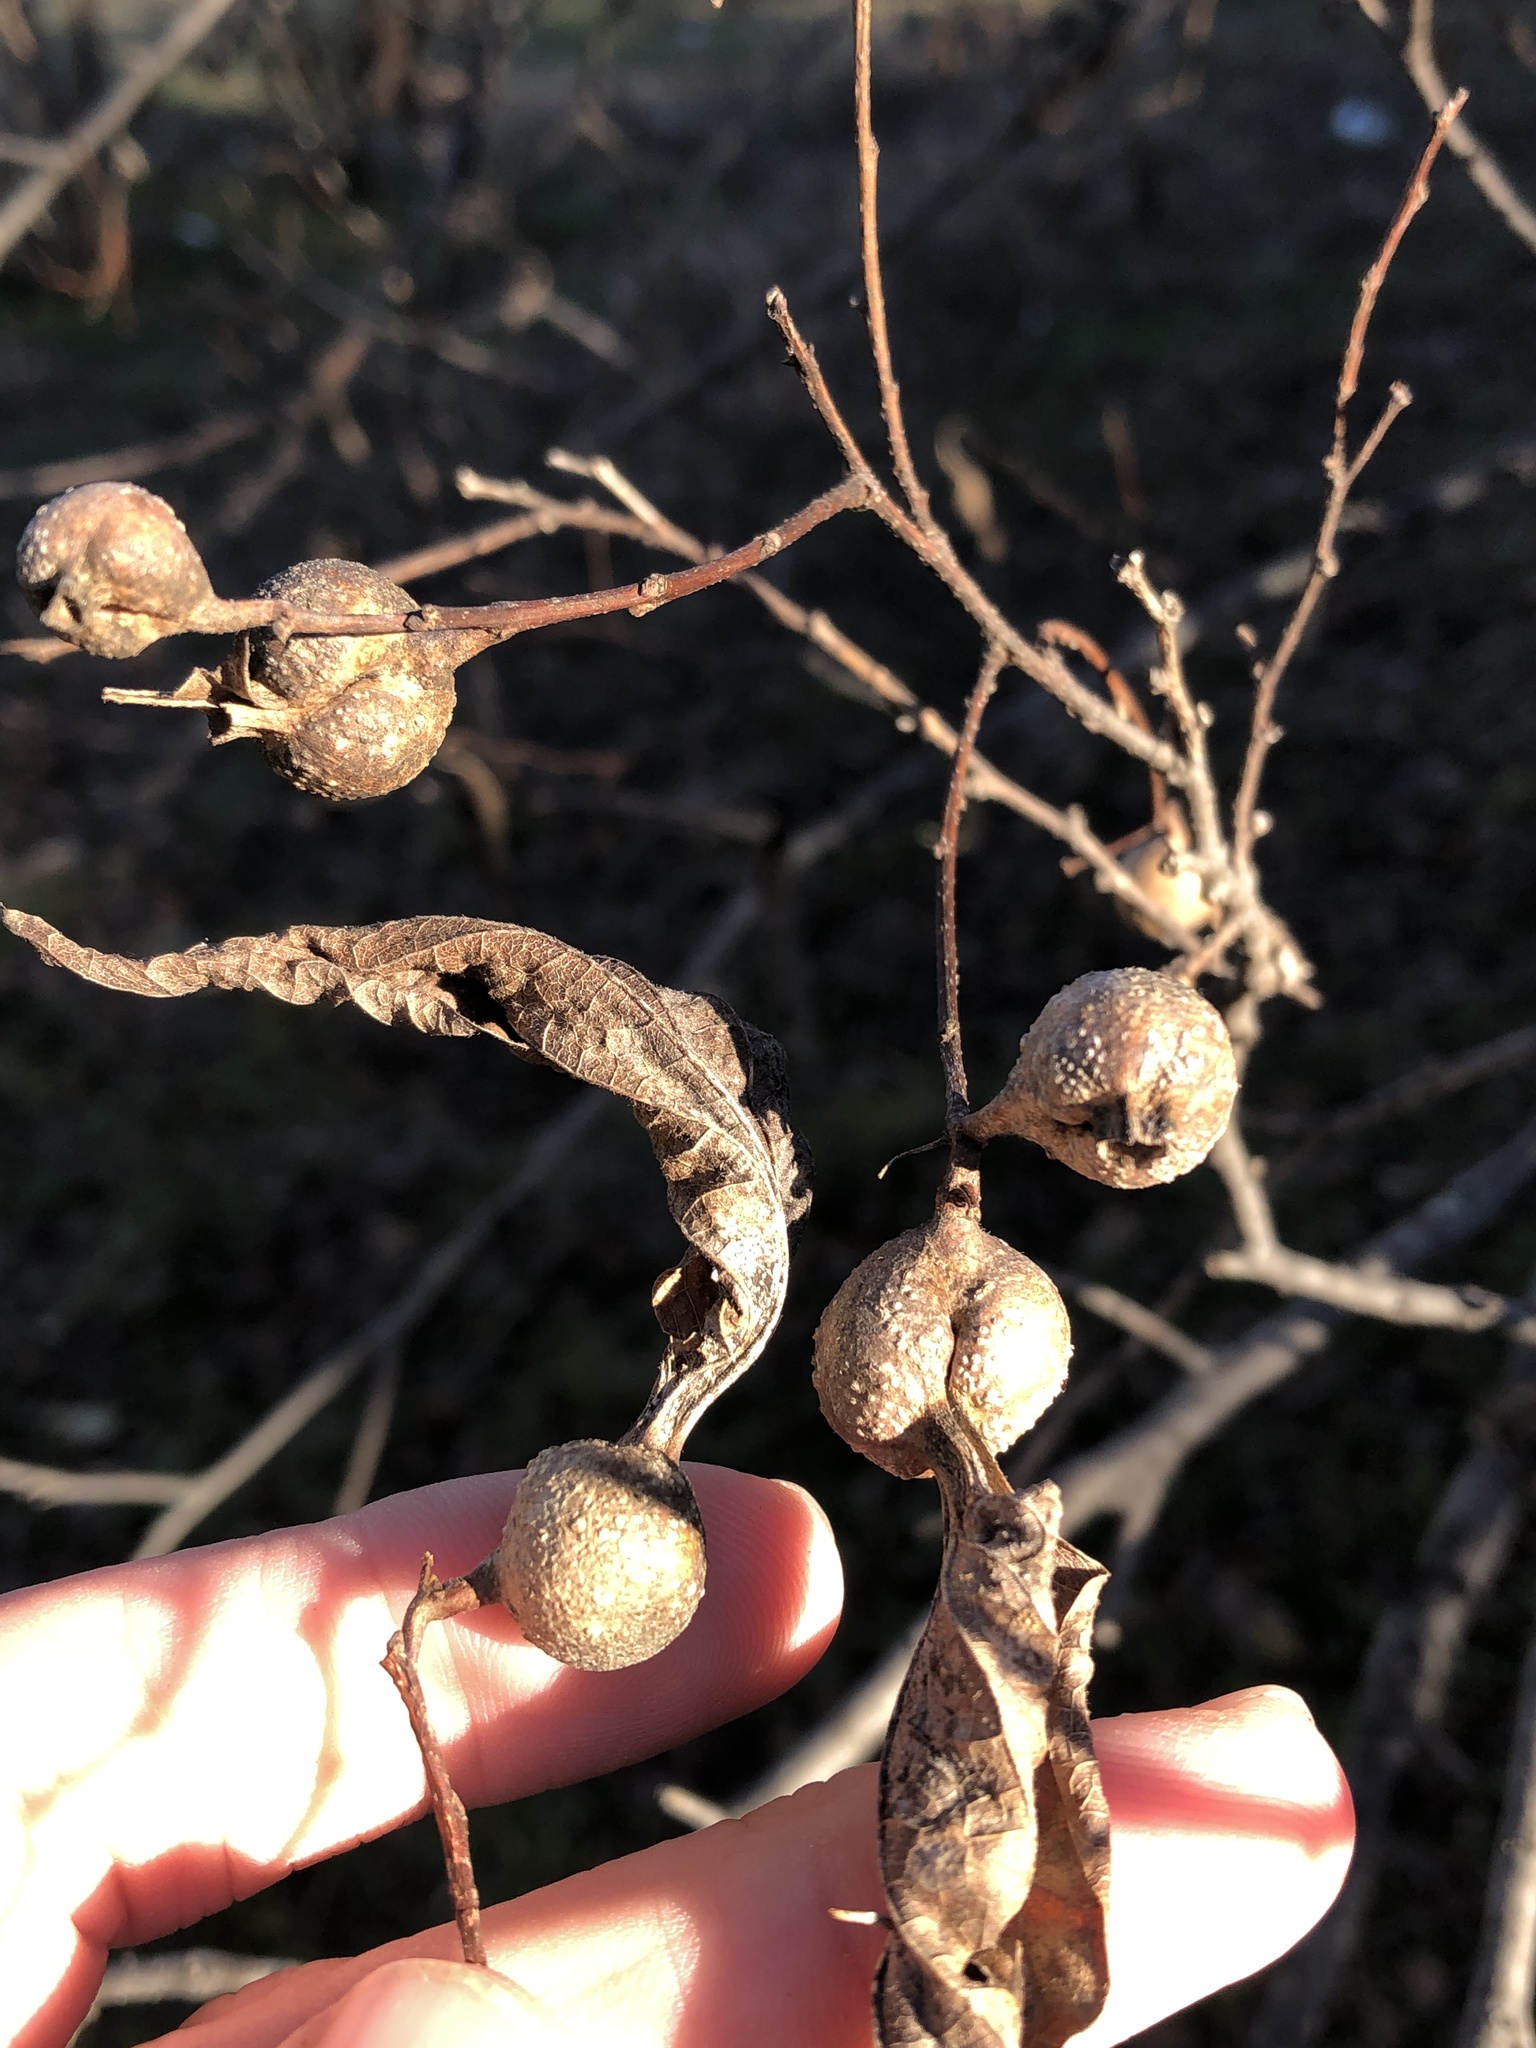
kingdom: Animalia
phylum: Arthropoda
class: Insecta
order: Hemiptera
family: Aphalaridae
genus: Pachypsylla
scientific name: Pachypsylla venusta
